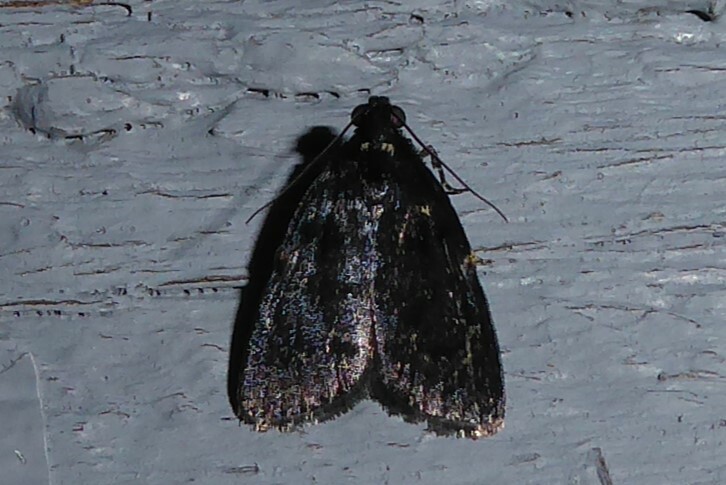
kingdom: Animalia
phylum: Arthropoda
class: Insecta
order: Lepidoptera
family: Pyralidae
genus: Stericta
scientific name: Stericta carbonalis
